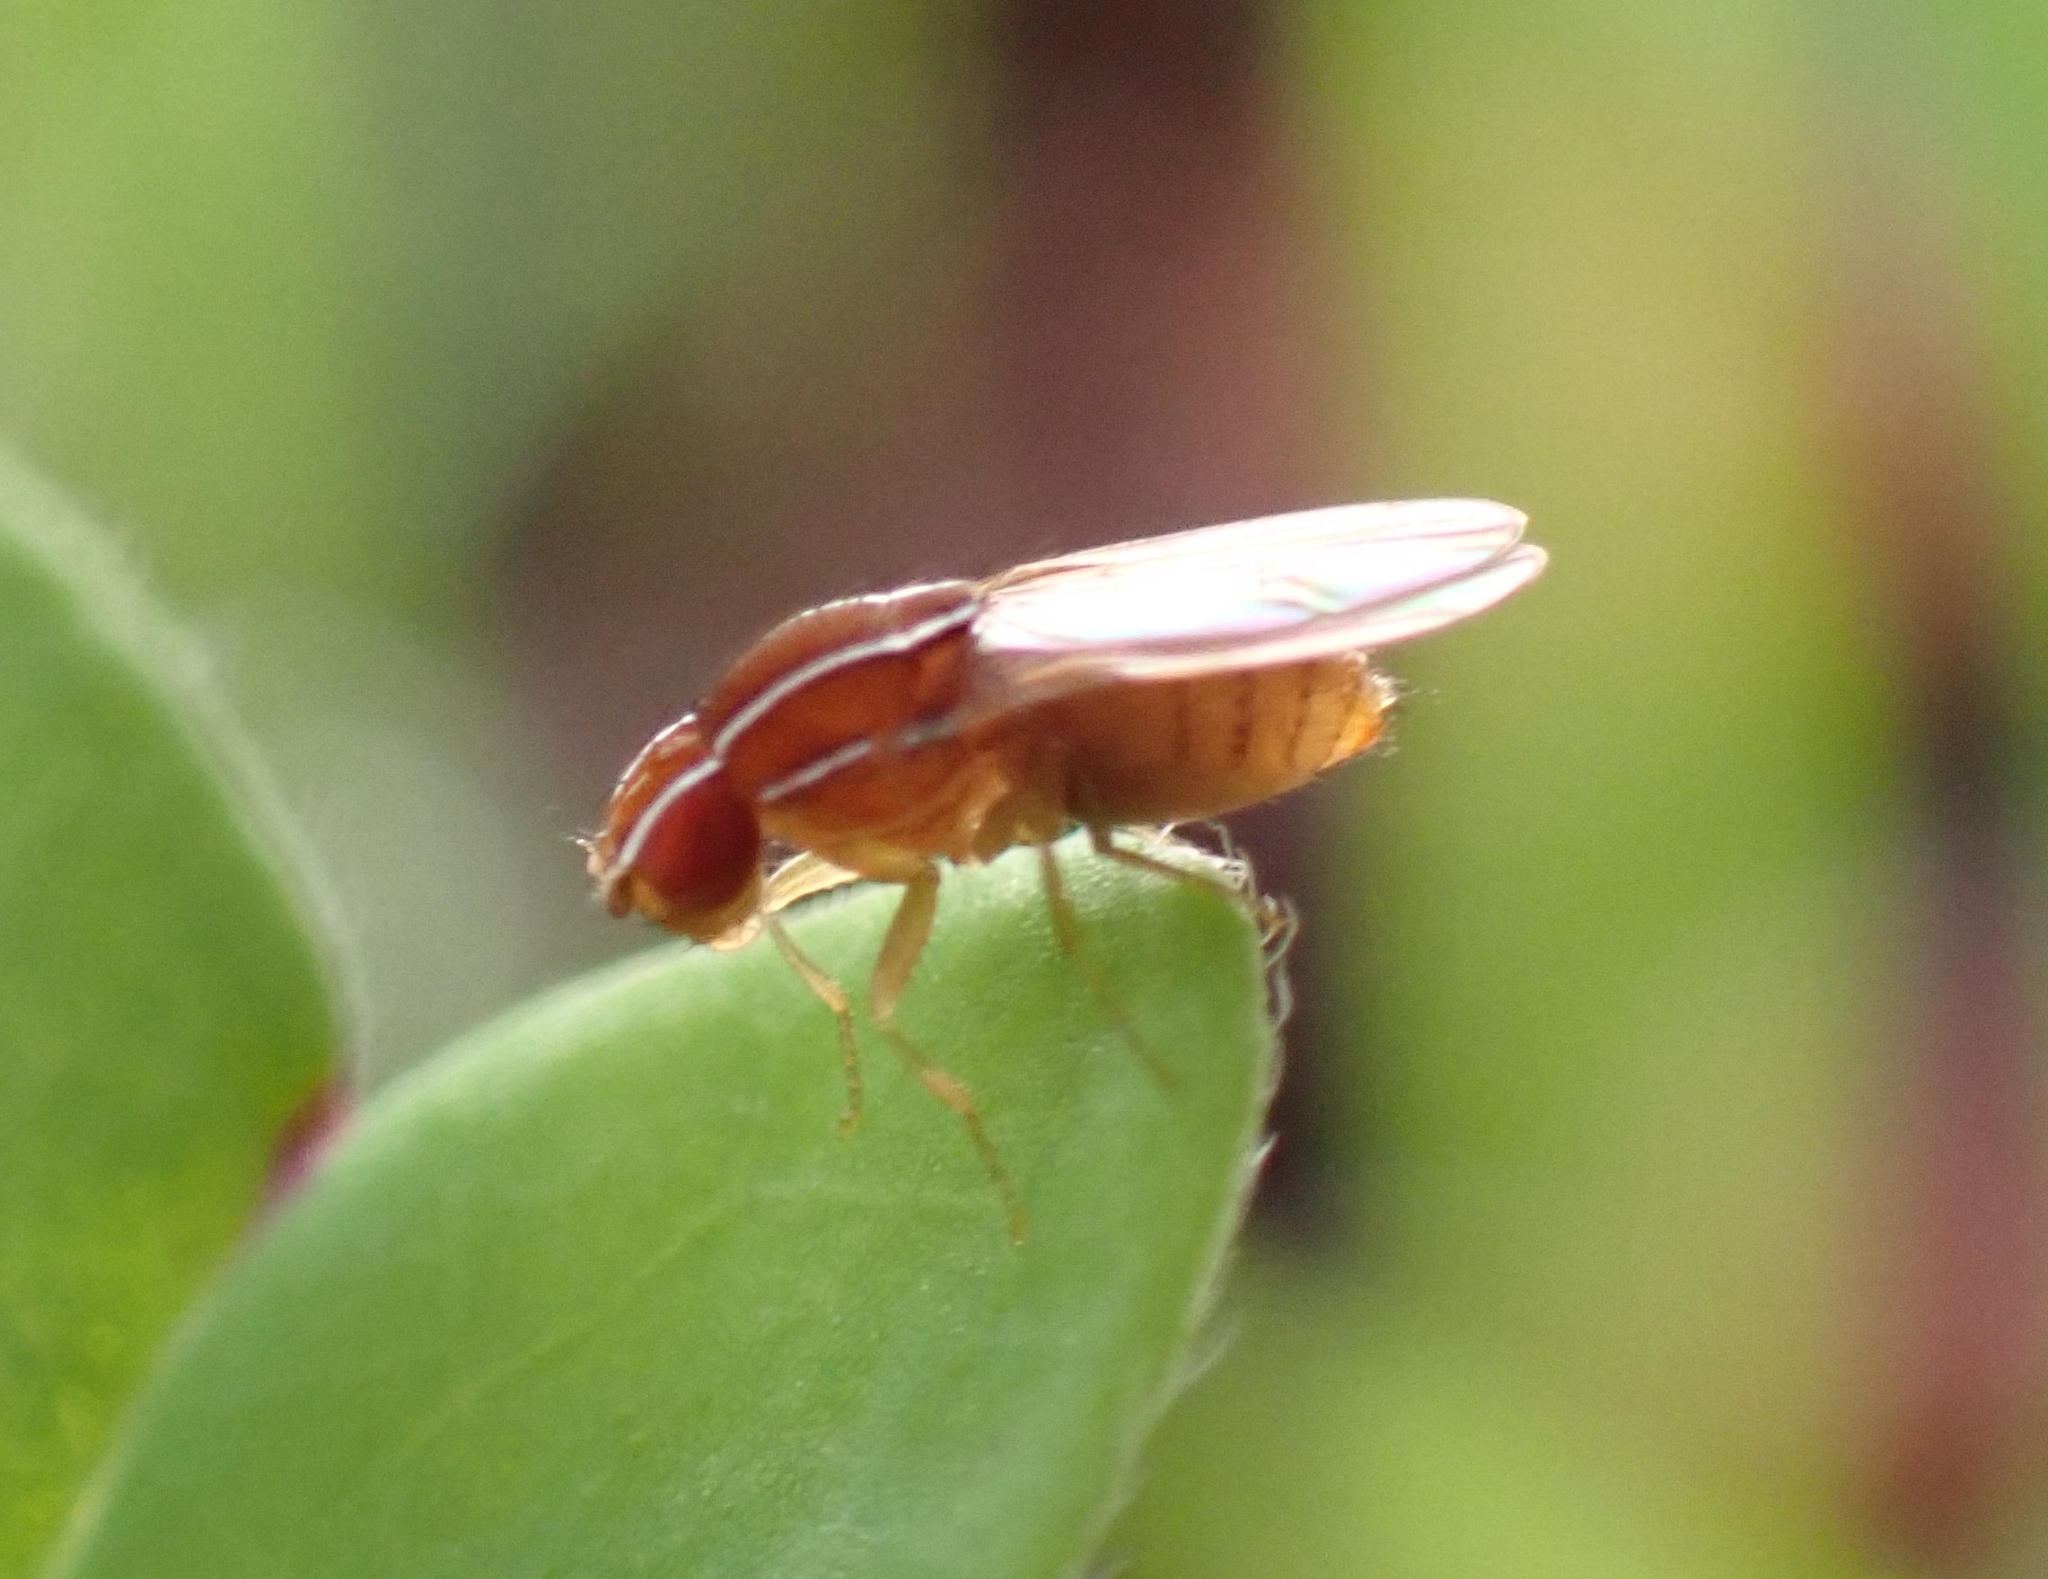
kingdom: Animalia
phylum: Arthropoda
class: Insecta
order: Diptera
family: Drosophilidae
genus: Zaprionus
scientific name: Zaprionus indianus
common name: African fig fly
